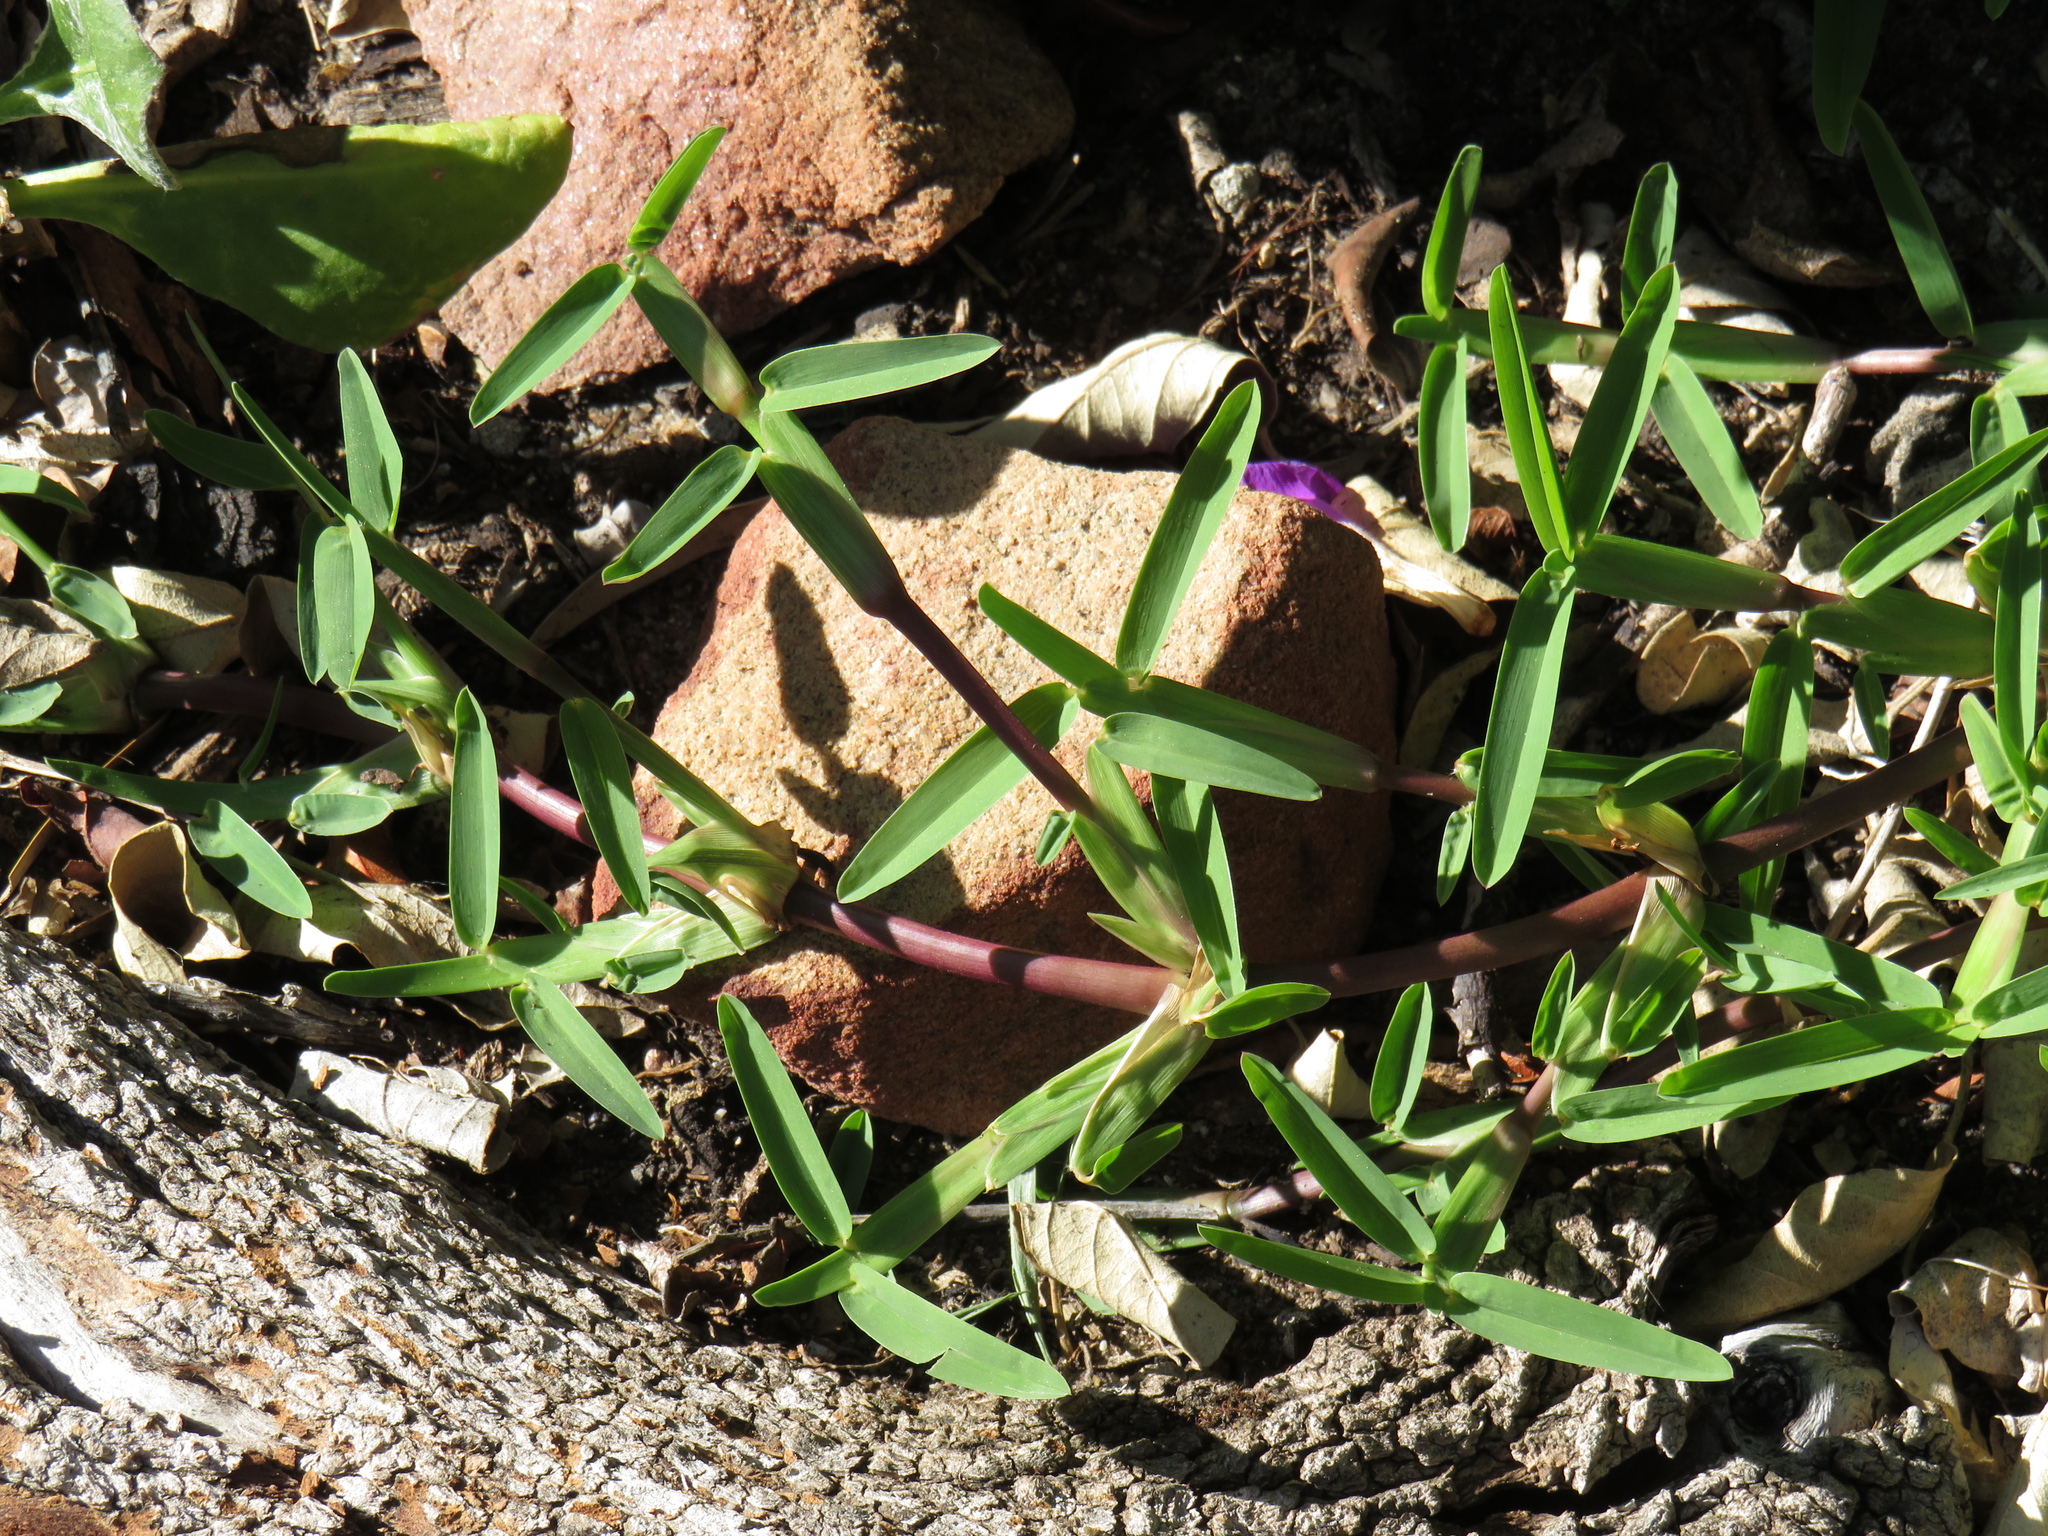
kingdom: Plantae
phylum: Tracheophyta
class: Liliopsida
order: Poales
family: Poaceae
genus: Stenotaphrum
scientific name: Stenotaphrum secundatum
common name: St. augustine grass
